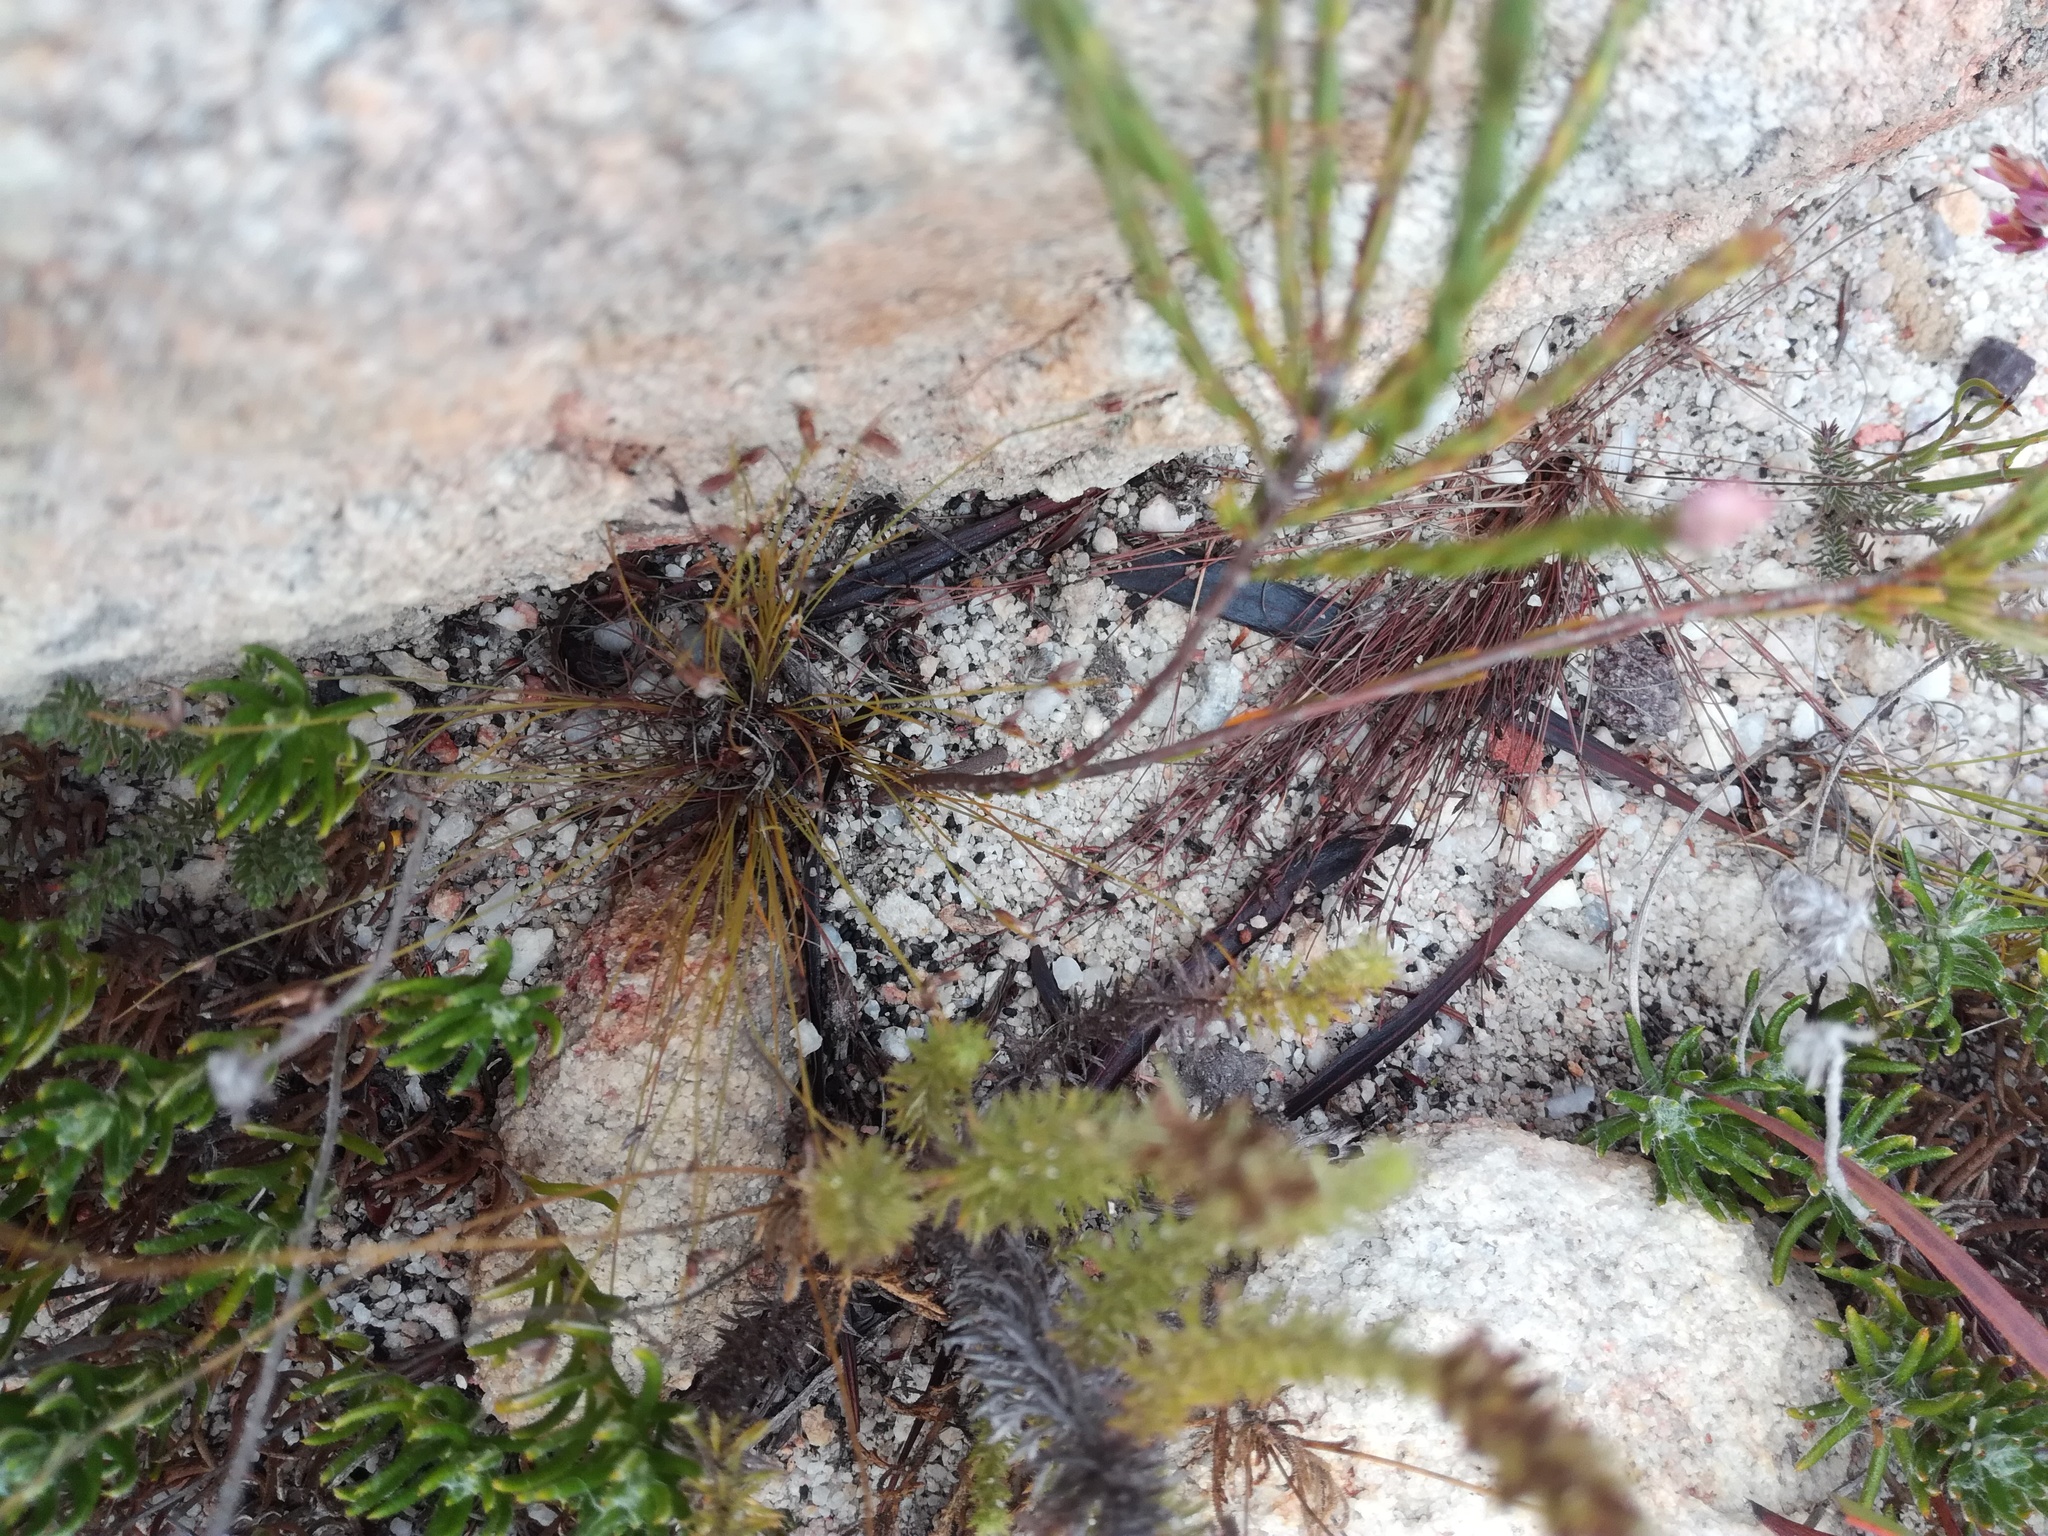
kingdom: Plantae
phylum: Tracheophyta
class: Magnoliopsida
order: Ericales
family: Ericaceae
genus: Erica
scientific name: Erica corifolia
